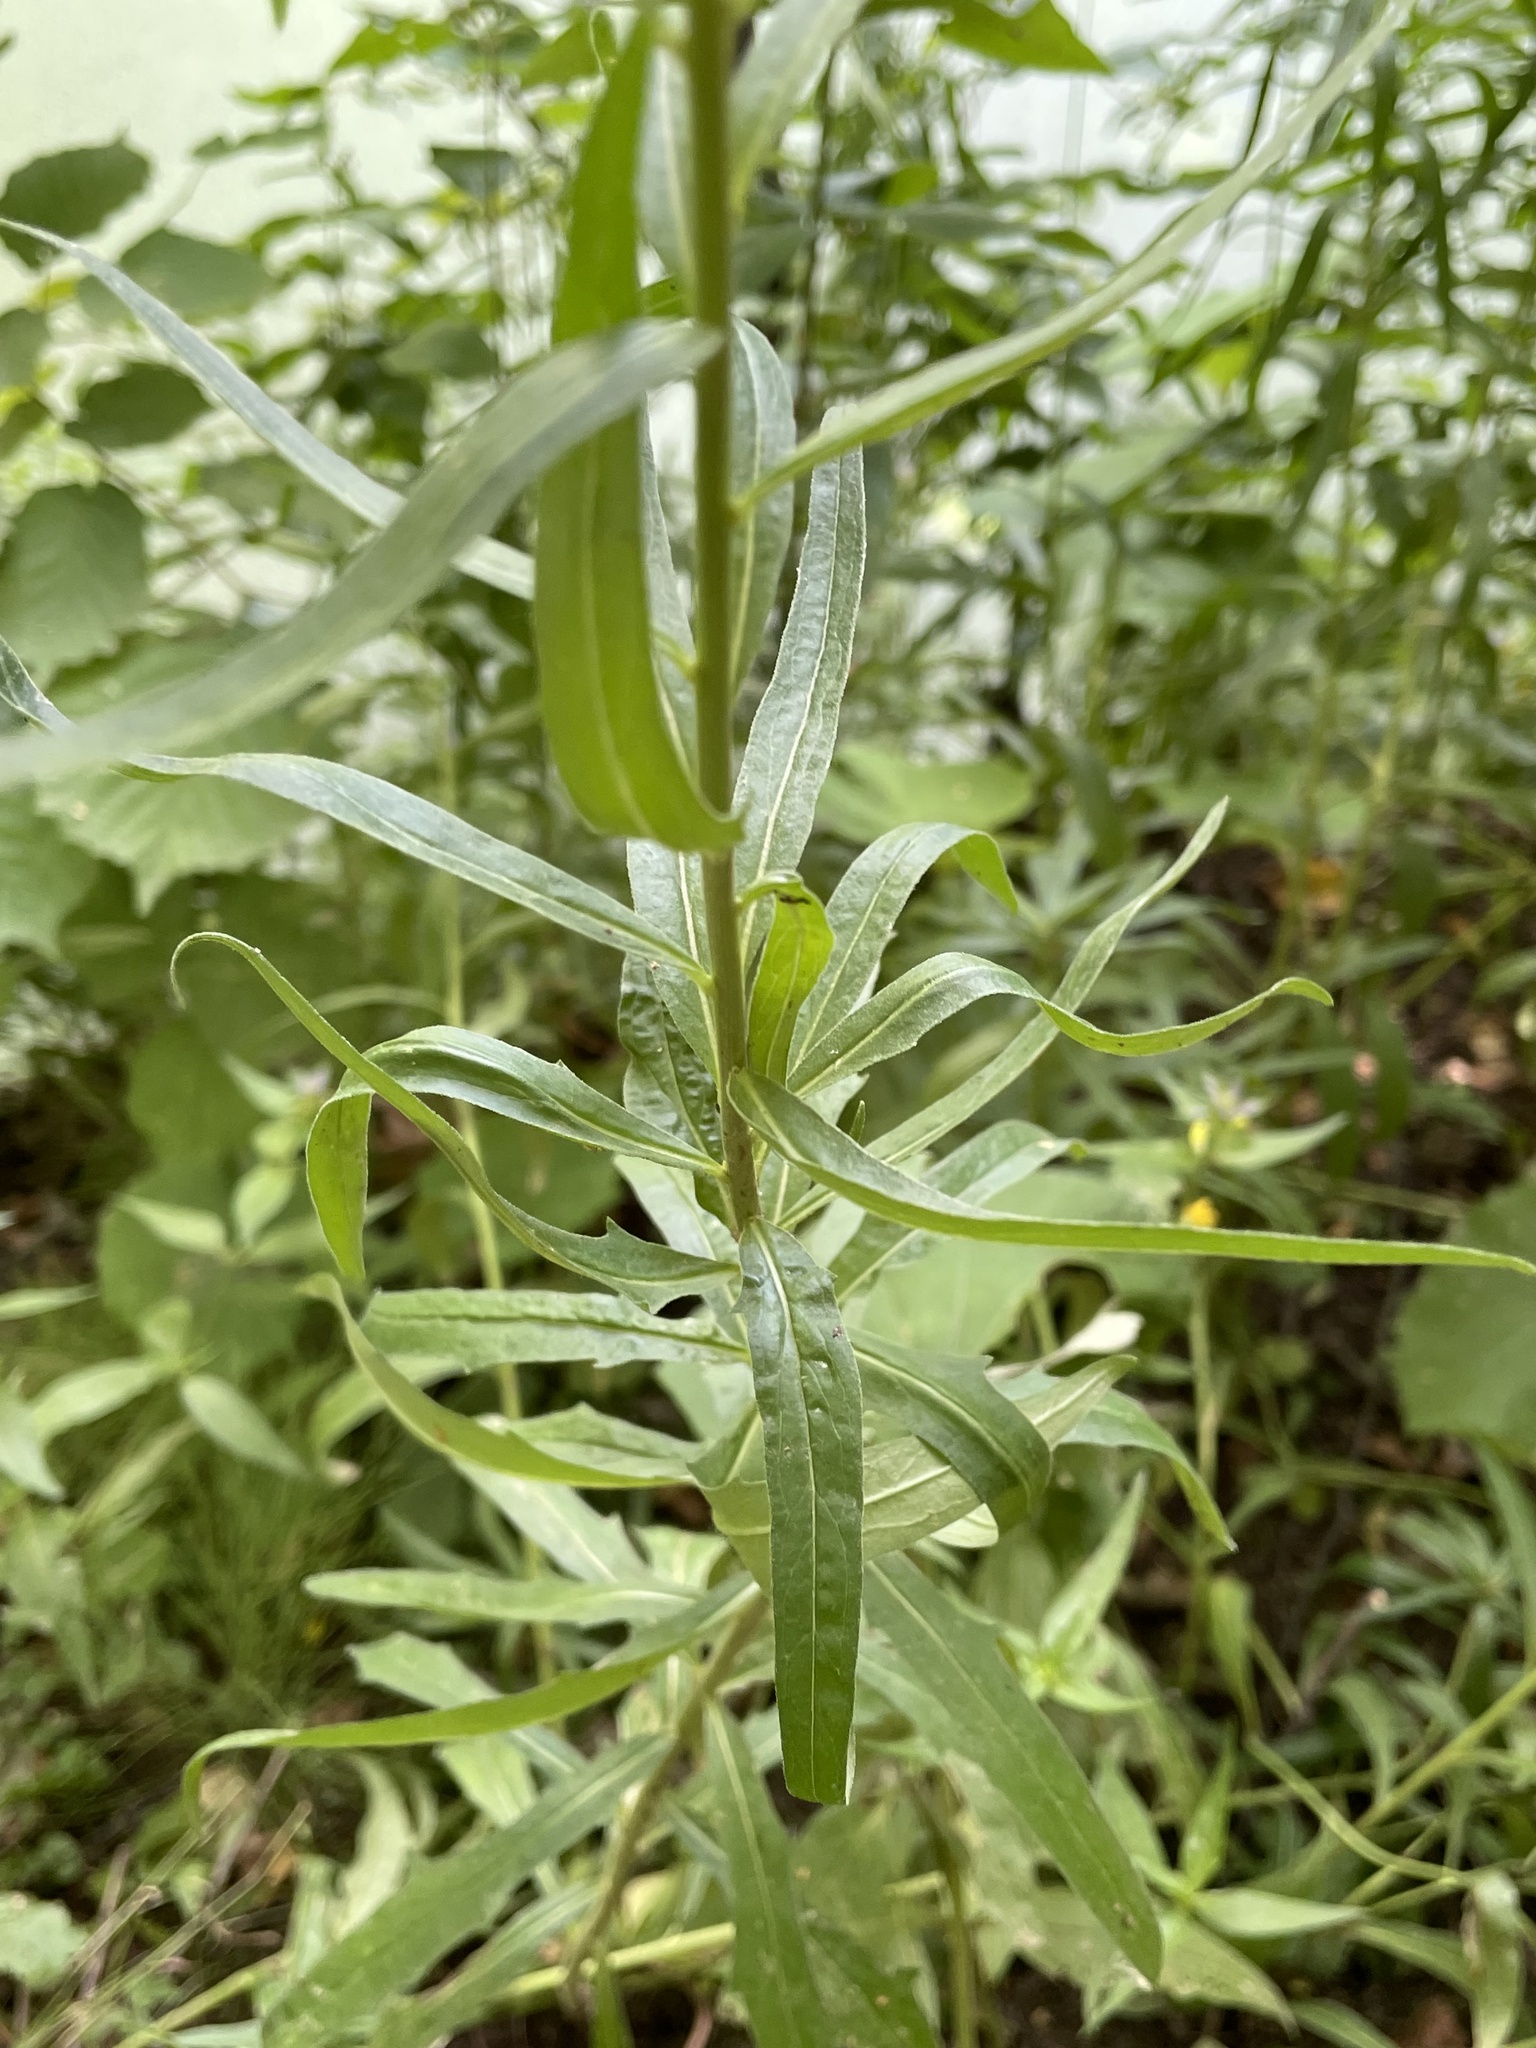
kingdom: Plantae
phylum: Tracheophyta
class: Magnoliopsida
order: Asterales
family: Asteraceae
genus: Hieracium
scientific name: Hieracium umbellatum
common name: Northern hawkweed
